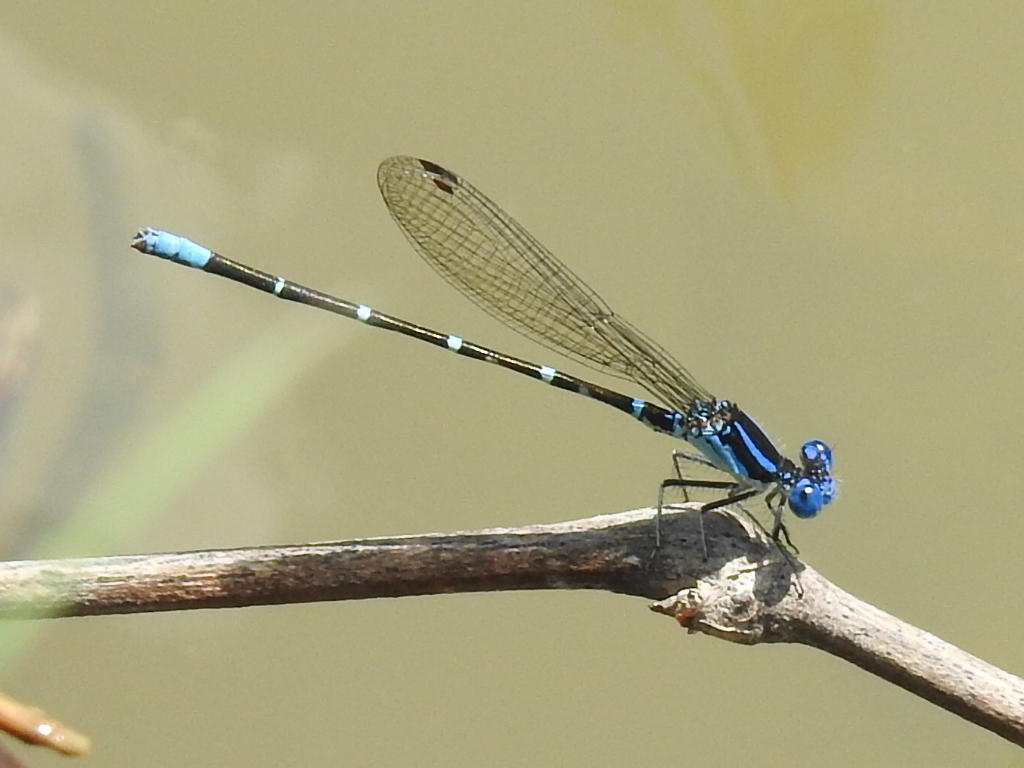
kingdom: Animalia
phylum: Arthropoda
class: Insecta
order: Odonata
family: Coenagrionidae
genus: Argia
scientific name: Argia sedula
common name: Blue-ringed dancer
